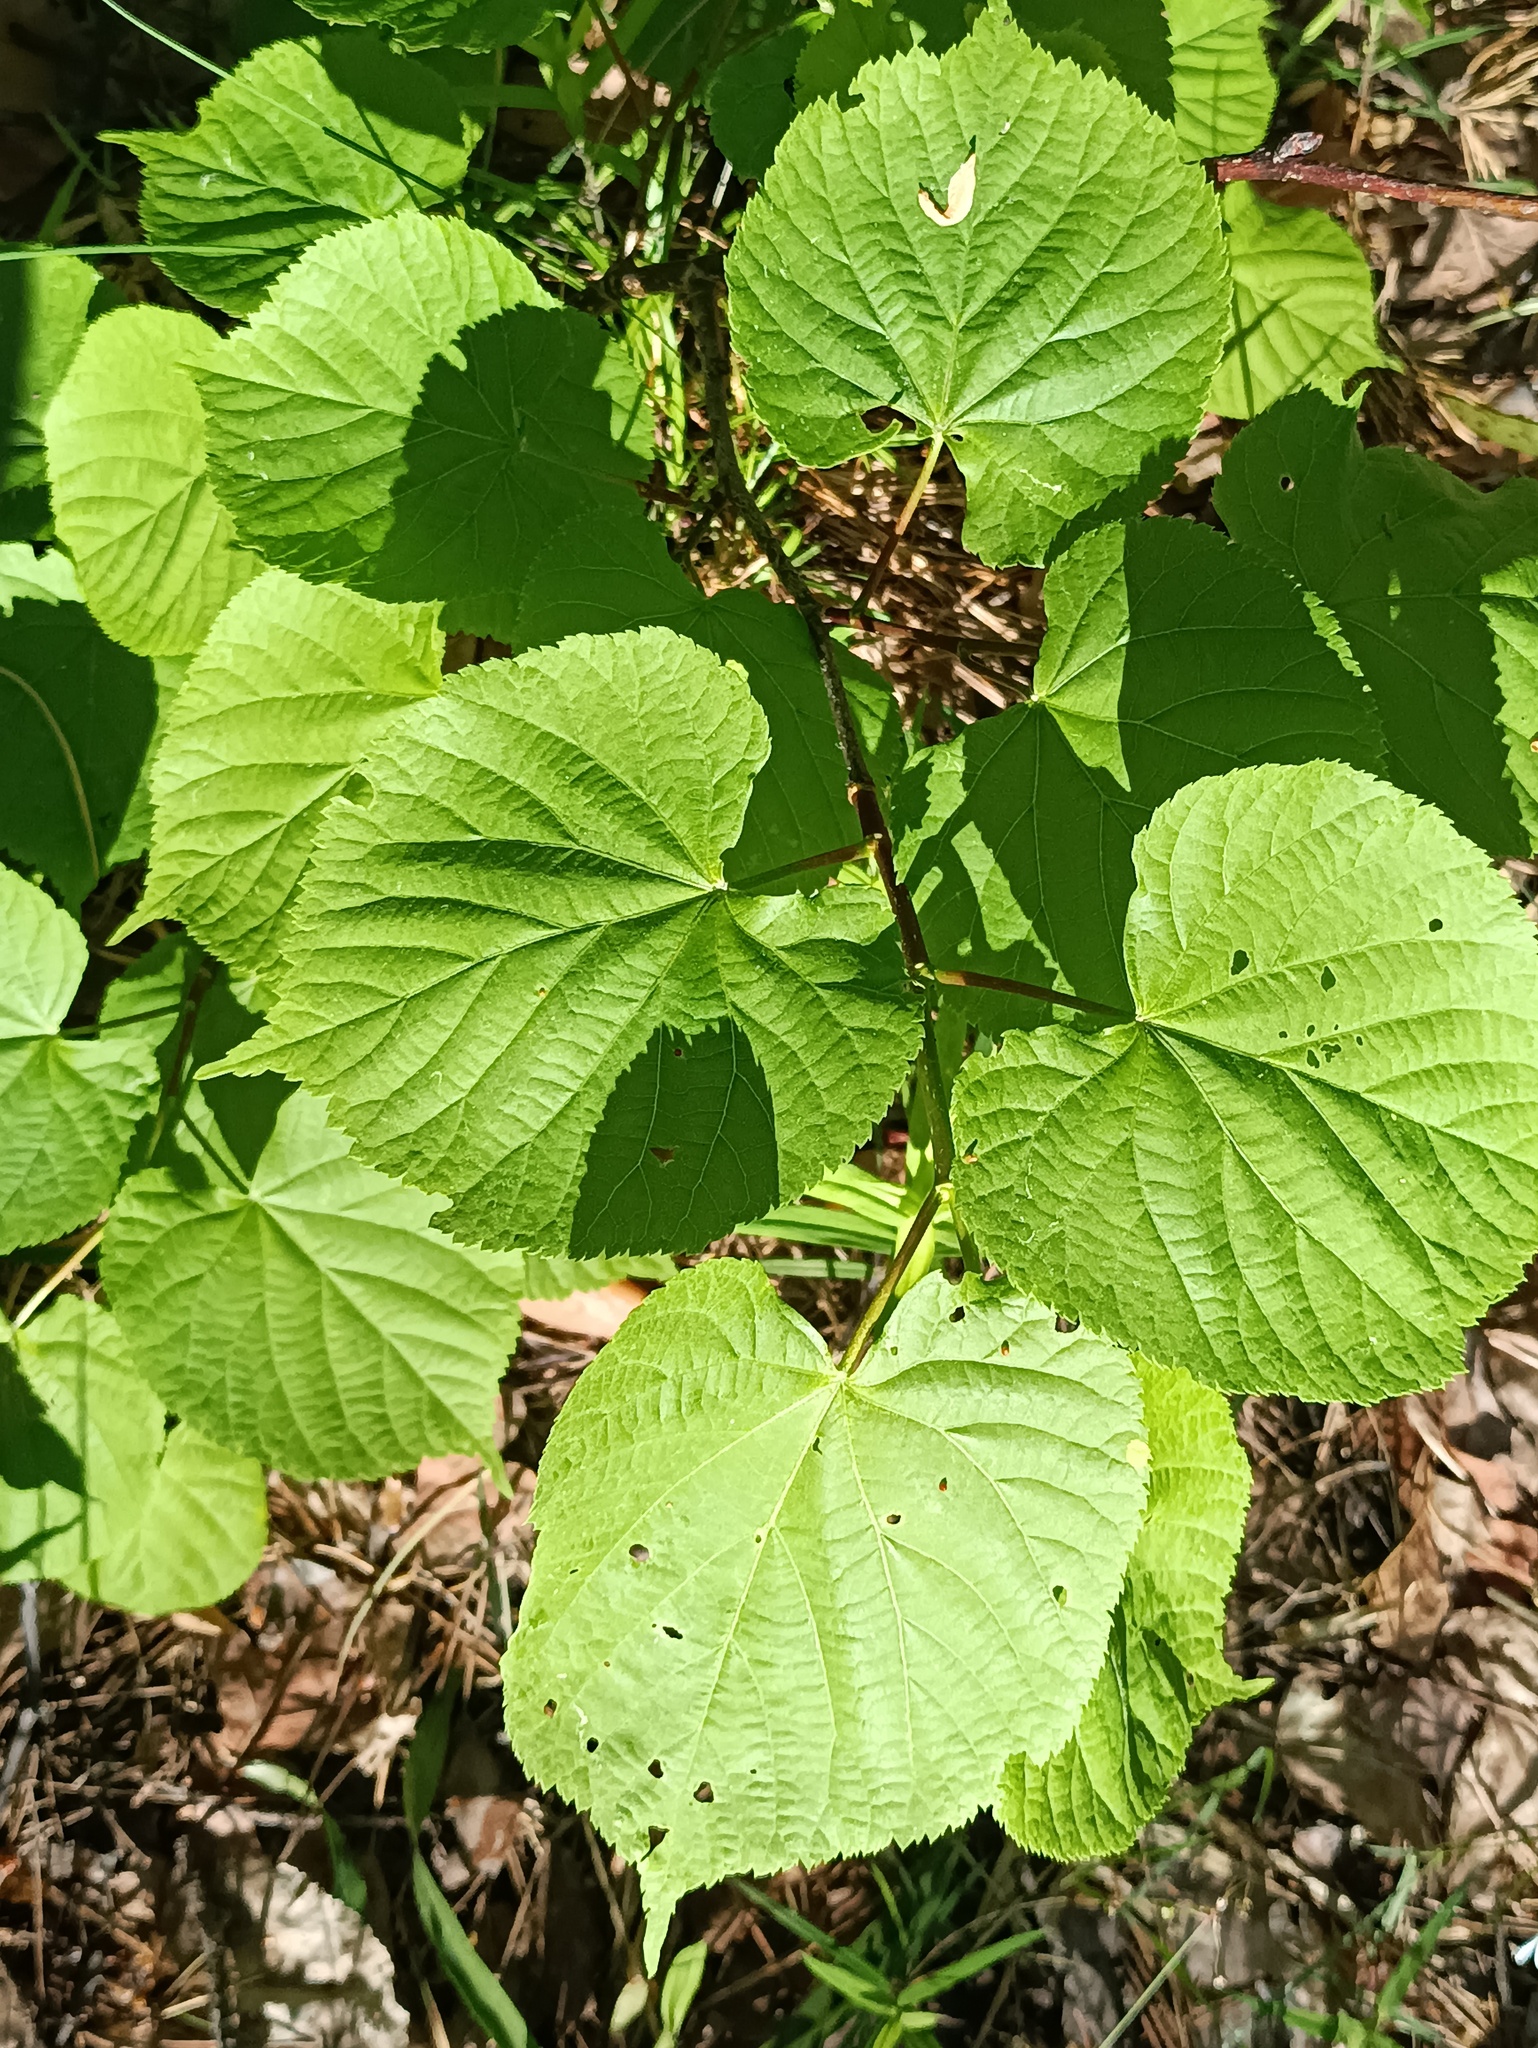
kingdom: Plantae
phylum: Tracheophyta
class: Magnoliopsida
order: Malvales
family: Malvaceae
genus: Tilia
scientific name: Tilia cordata
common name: Small-leaved lime
